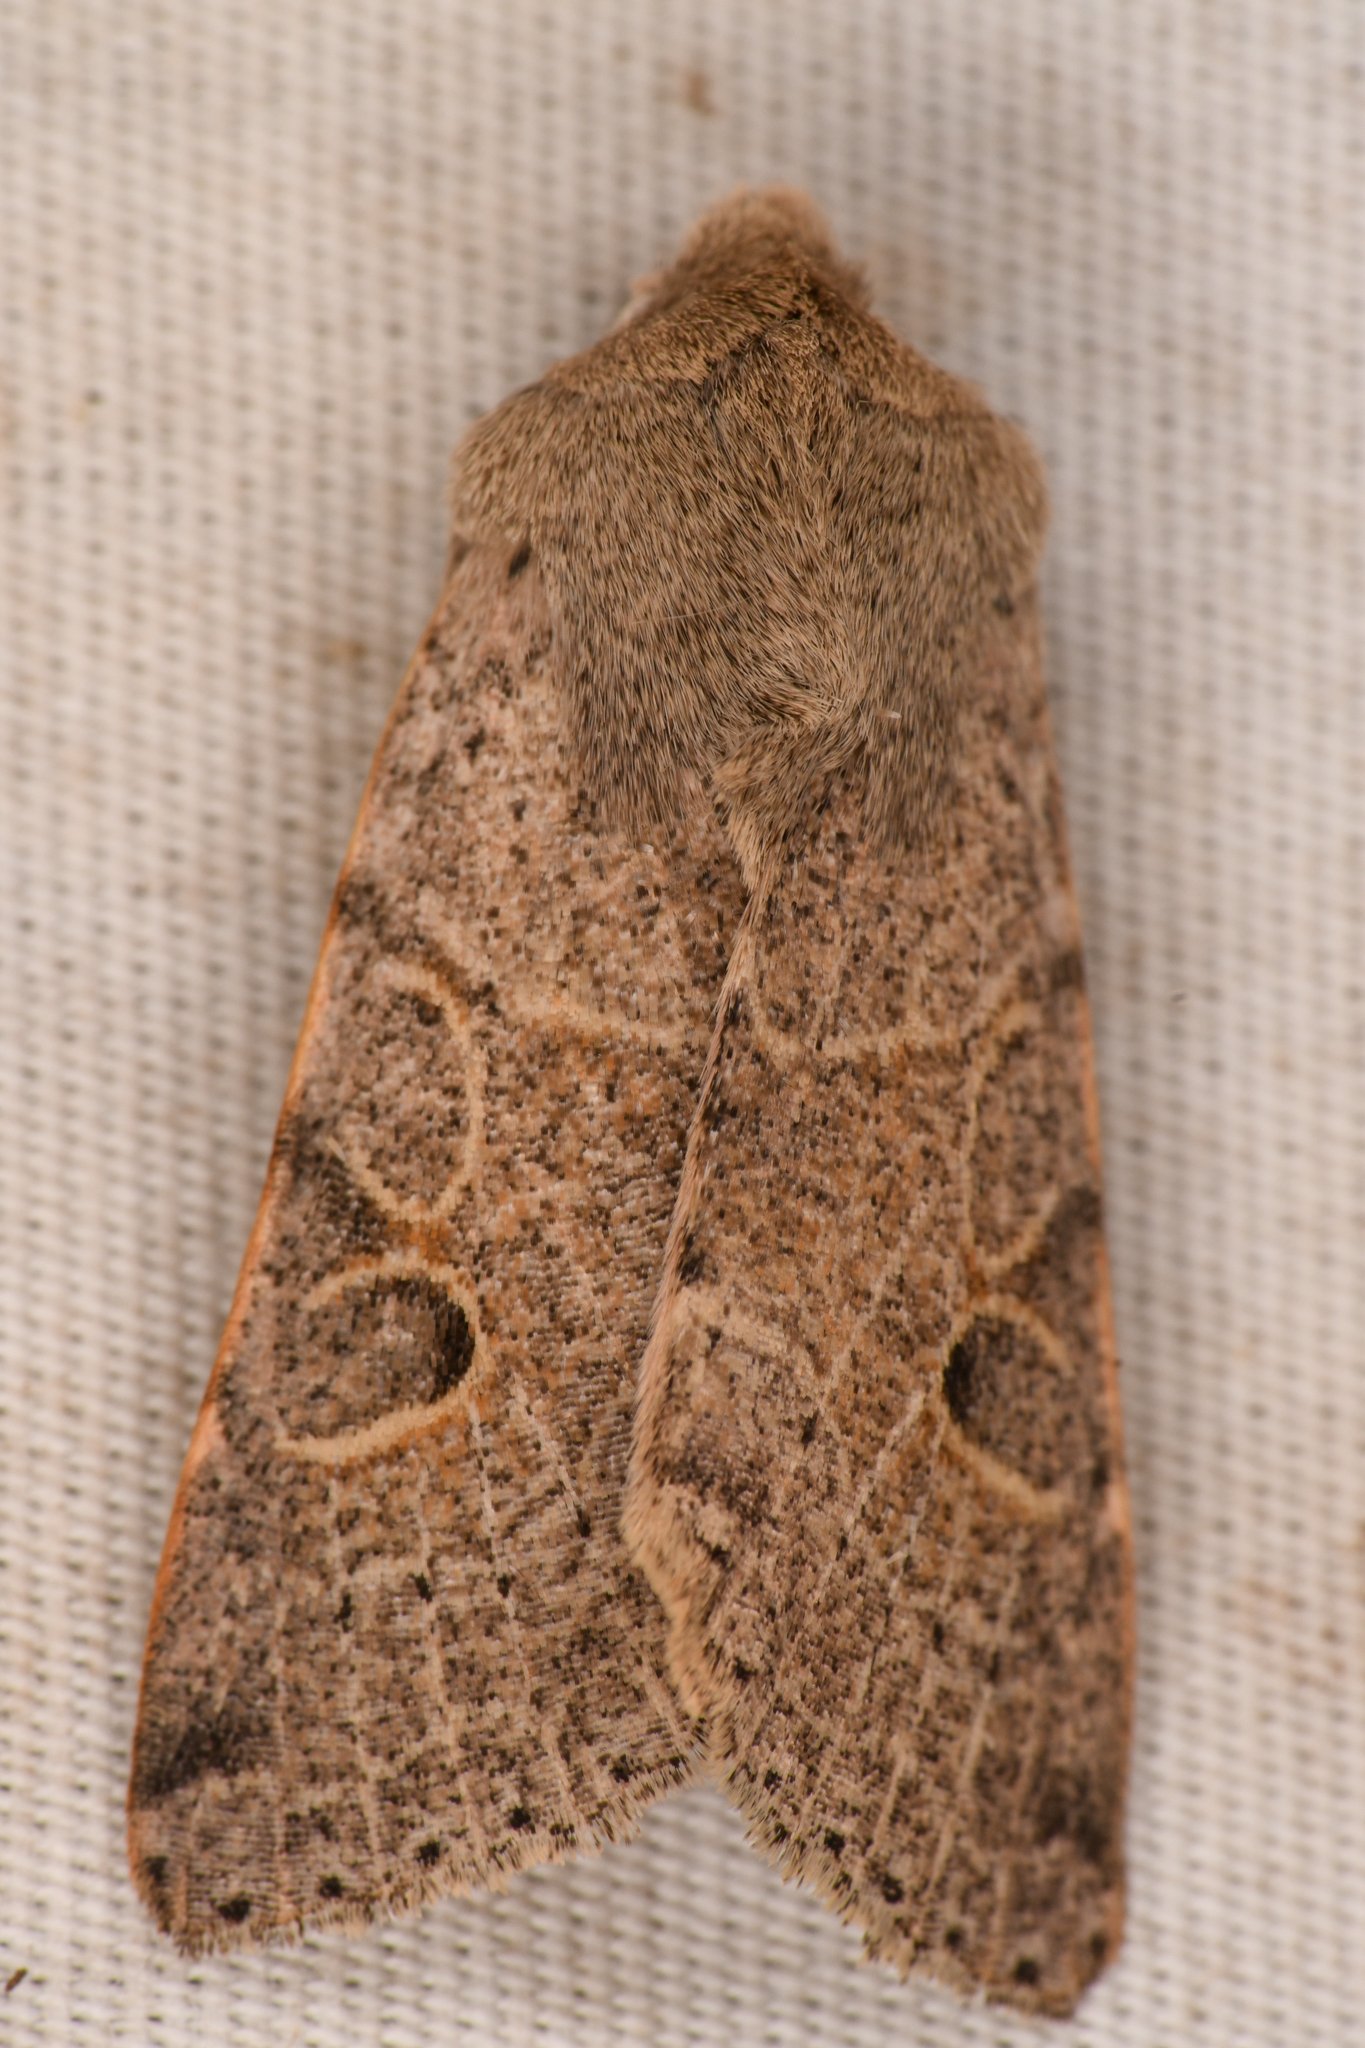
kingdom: Animalia
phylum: Arthropoda
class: Insecta
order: Lepidoptera
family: Noctuidae
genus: Orthosia
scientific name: Orthosia behrensiana
